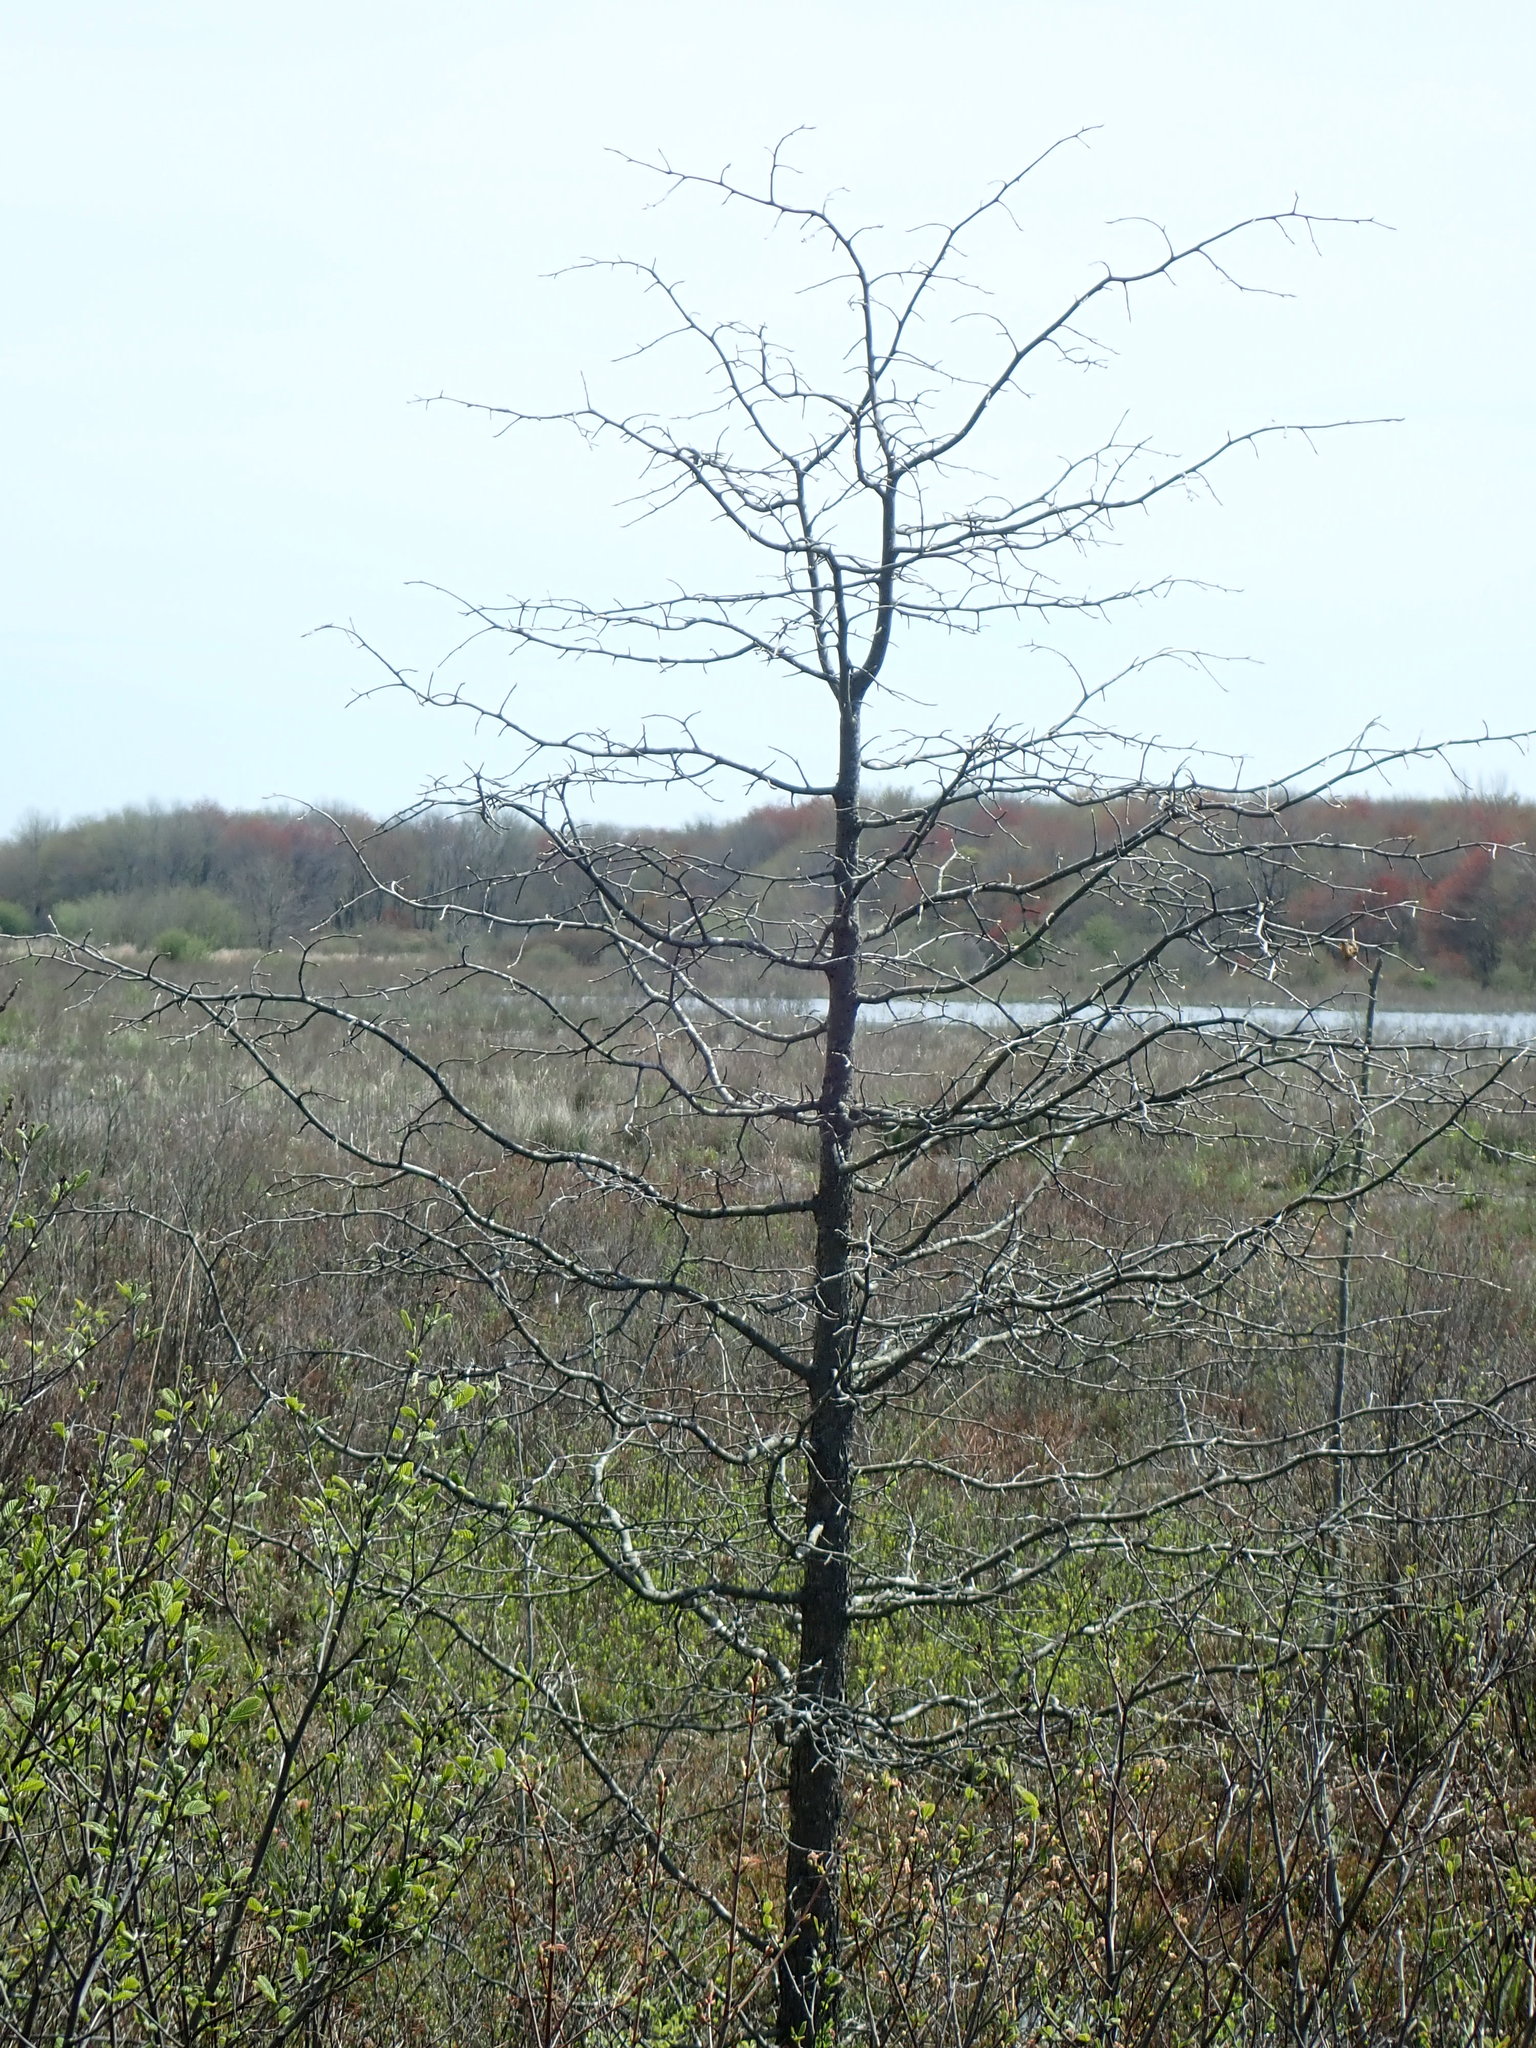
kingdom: Plantae
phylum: Tracheophyta
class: Magnoliopsida
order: Cornales
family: Nyssaceae
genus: Nyssa
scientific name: Nyssa sylvatica
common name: Black tupelo
